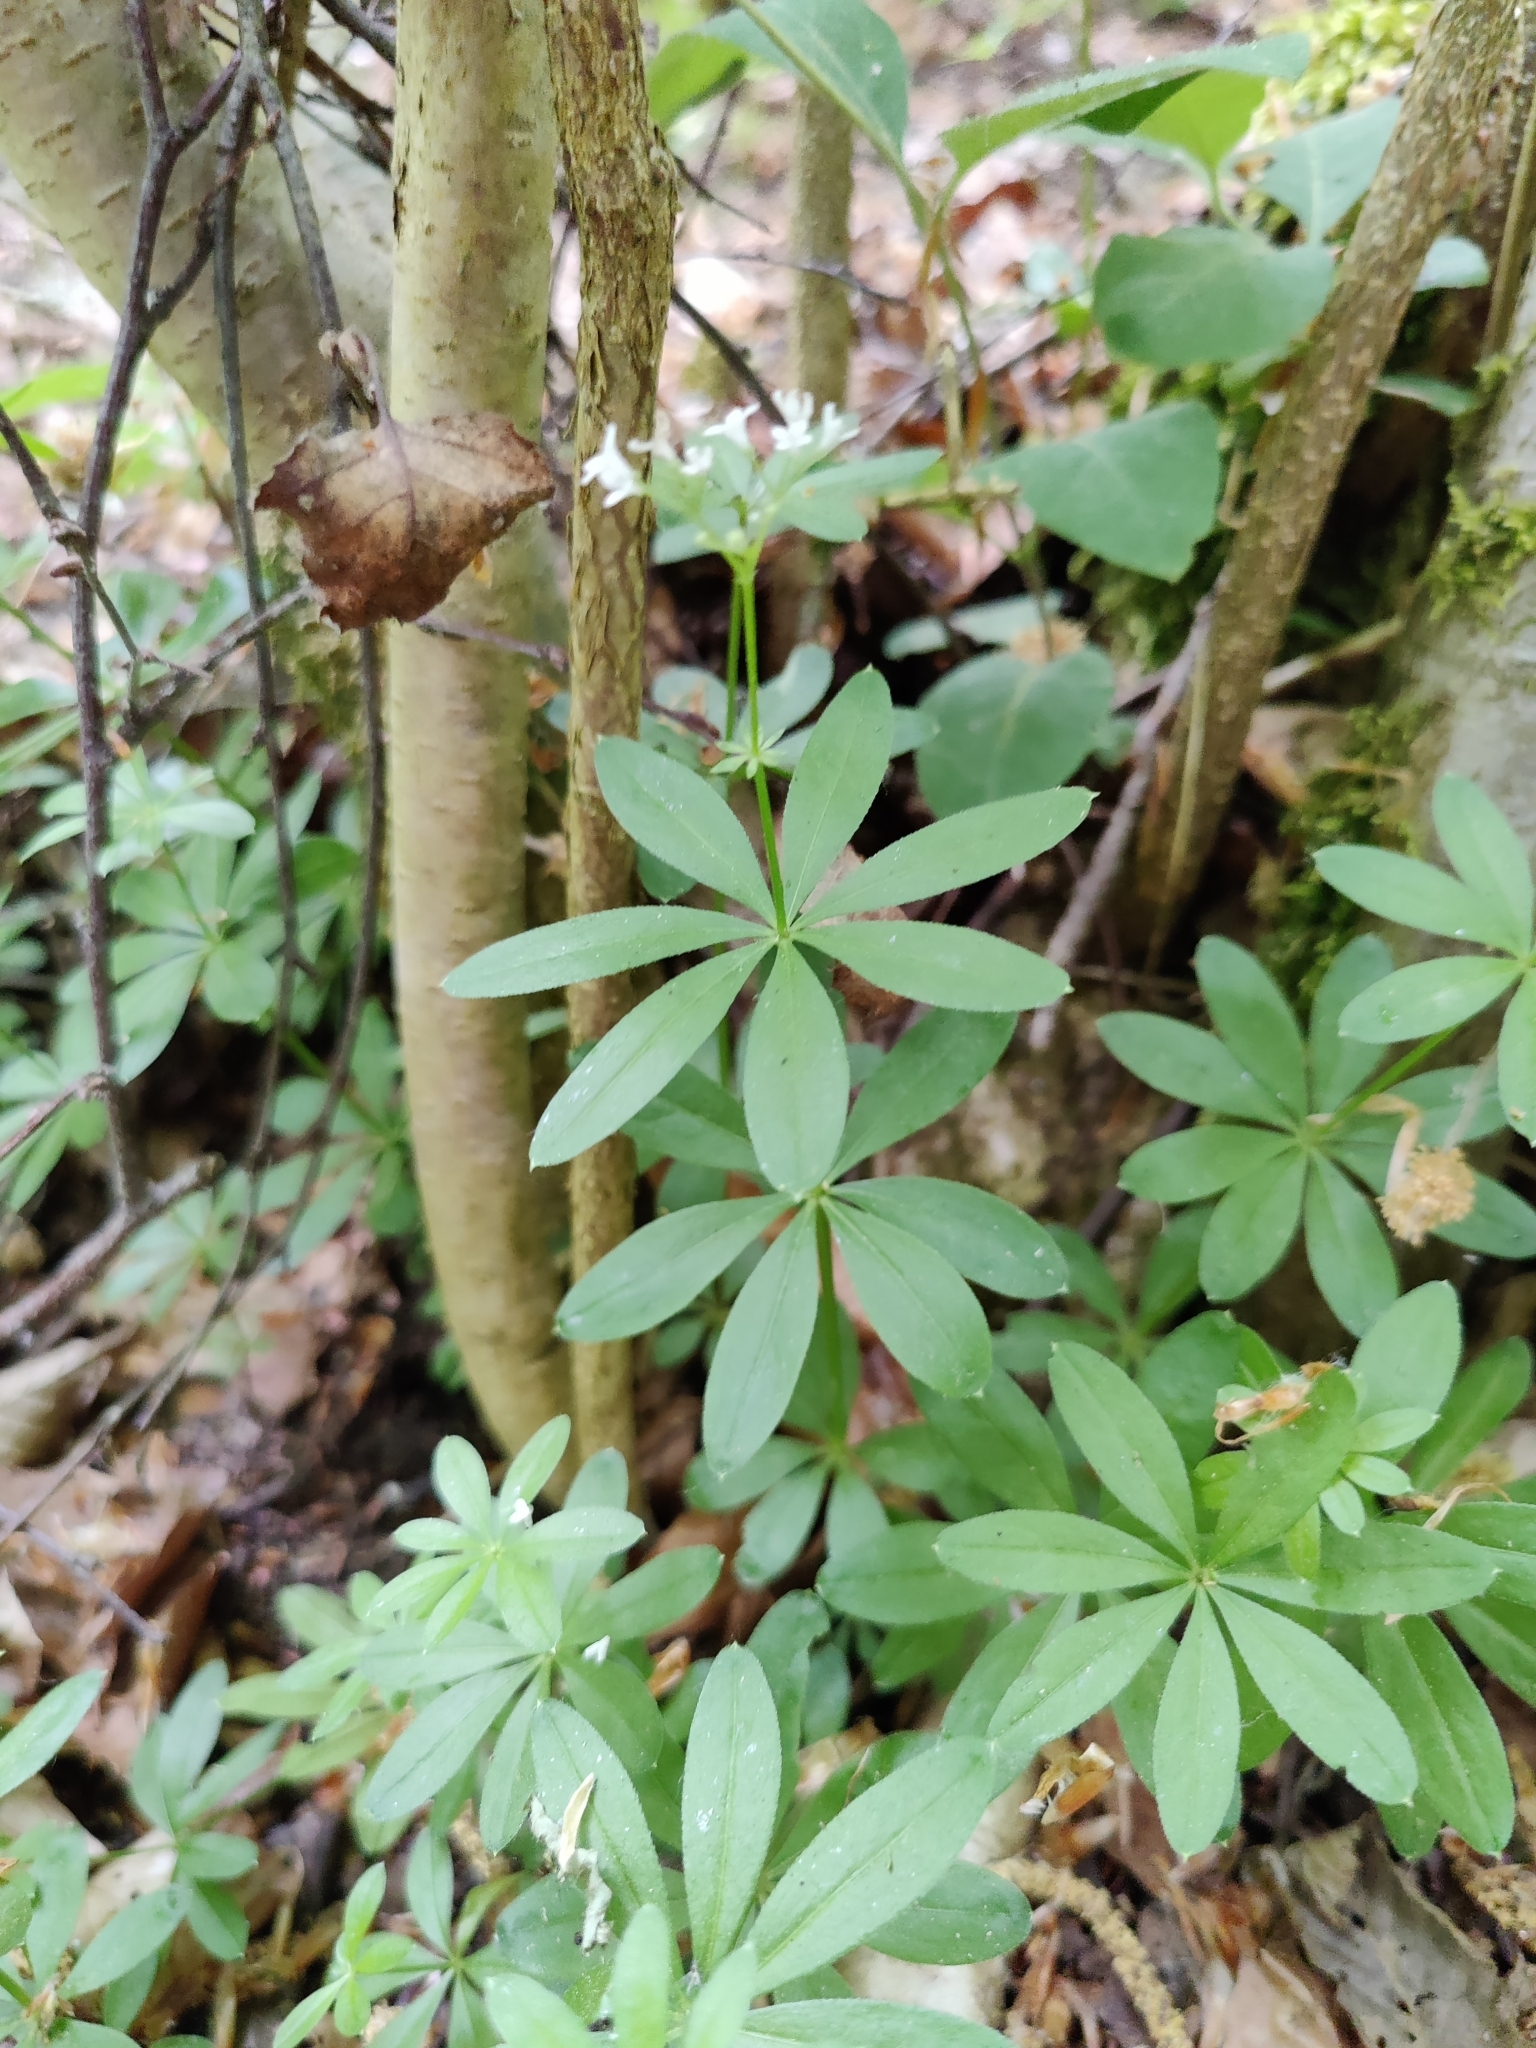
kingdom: Plantae
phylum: Tracheophyta
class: Magnoliopsida
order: Gentianales
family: Rubiaceae
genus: Galium
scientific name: Galium odoratum
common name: Sweet woodruff
